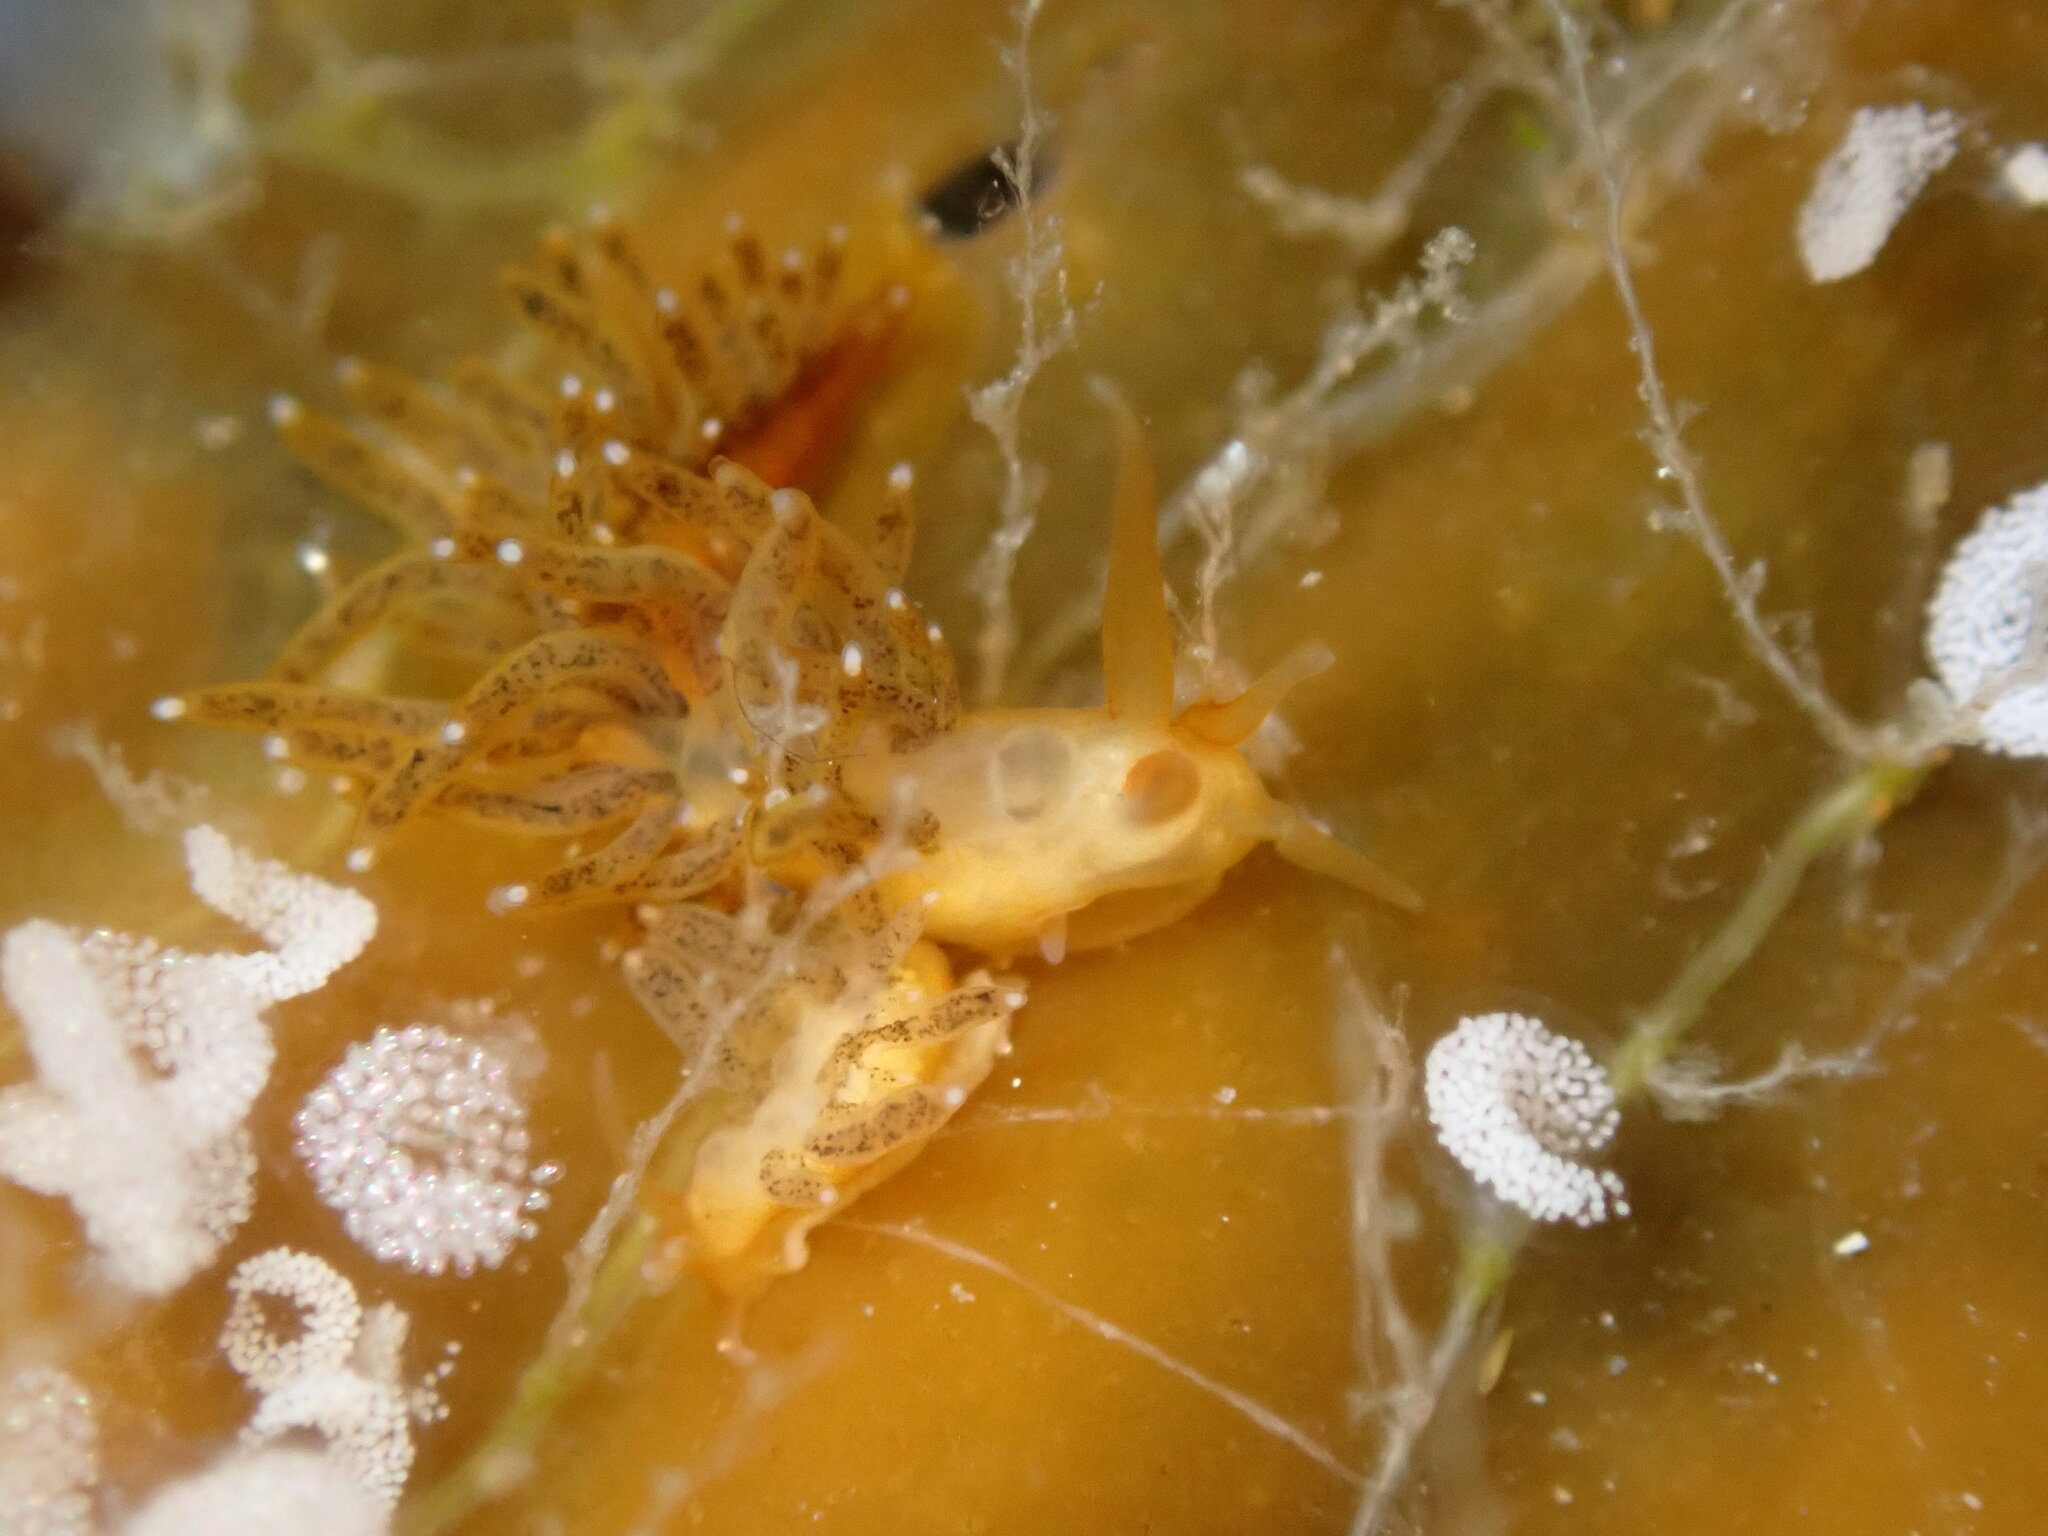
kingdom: Animalia
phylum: Mollusca
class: Gastropoda
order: Nudibranchia
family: Cuthonidae
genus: Cuthona
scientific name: Cuthona phoenix
